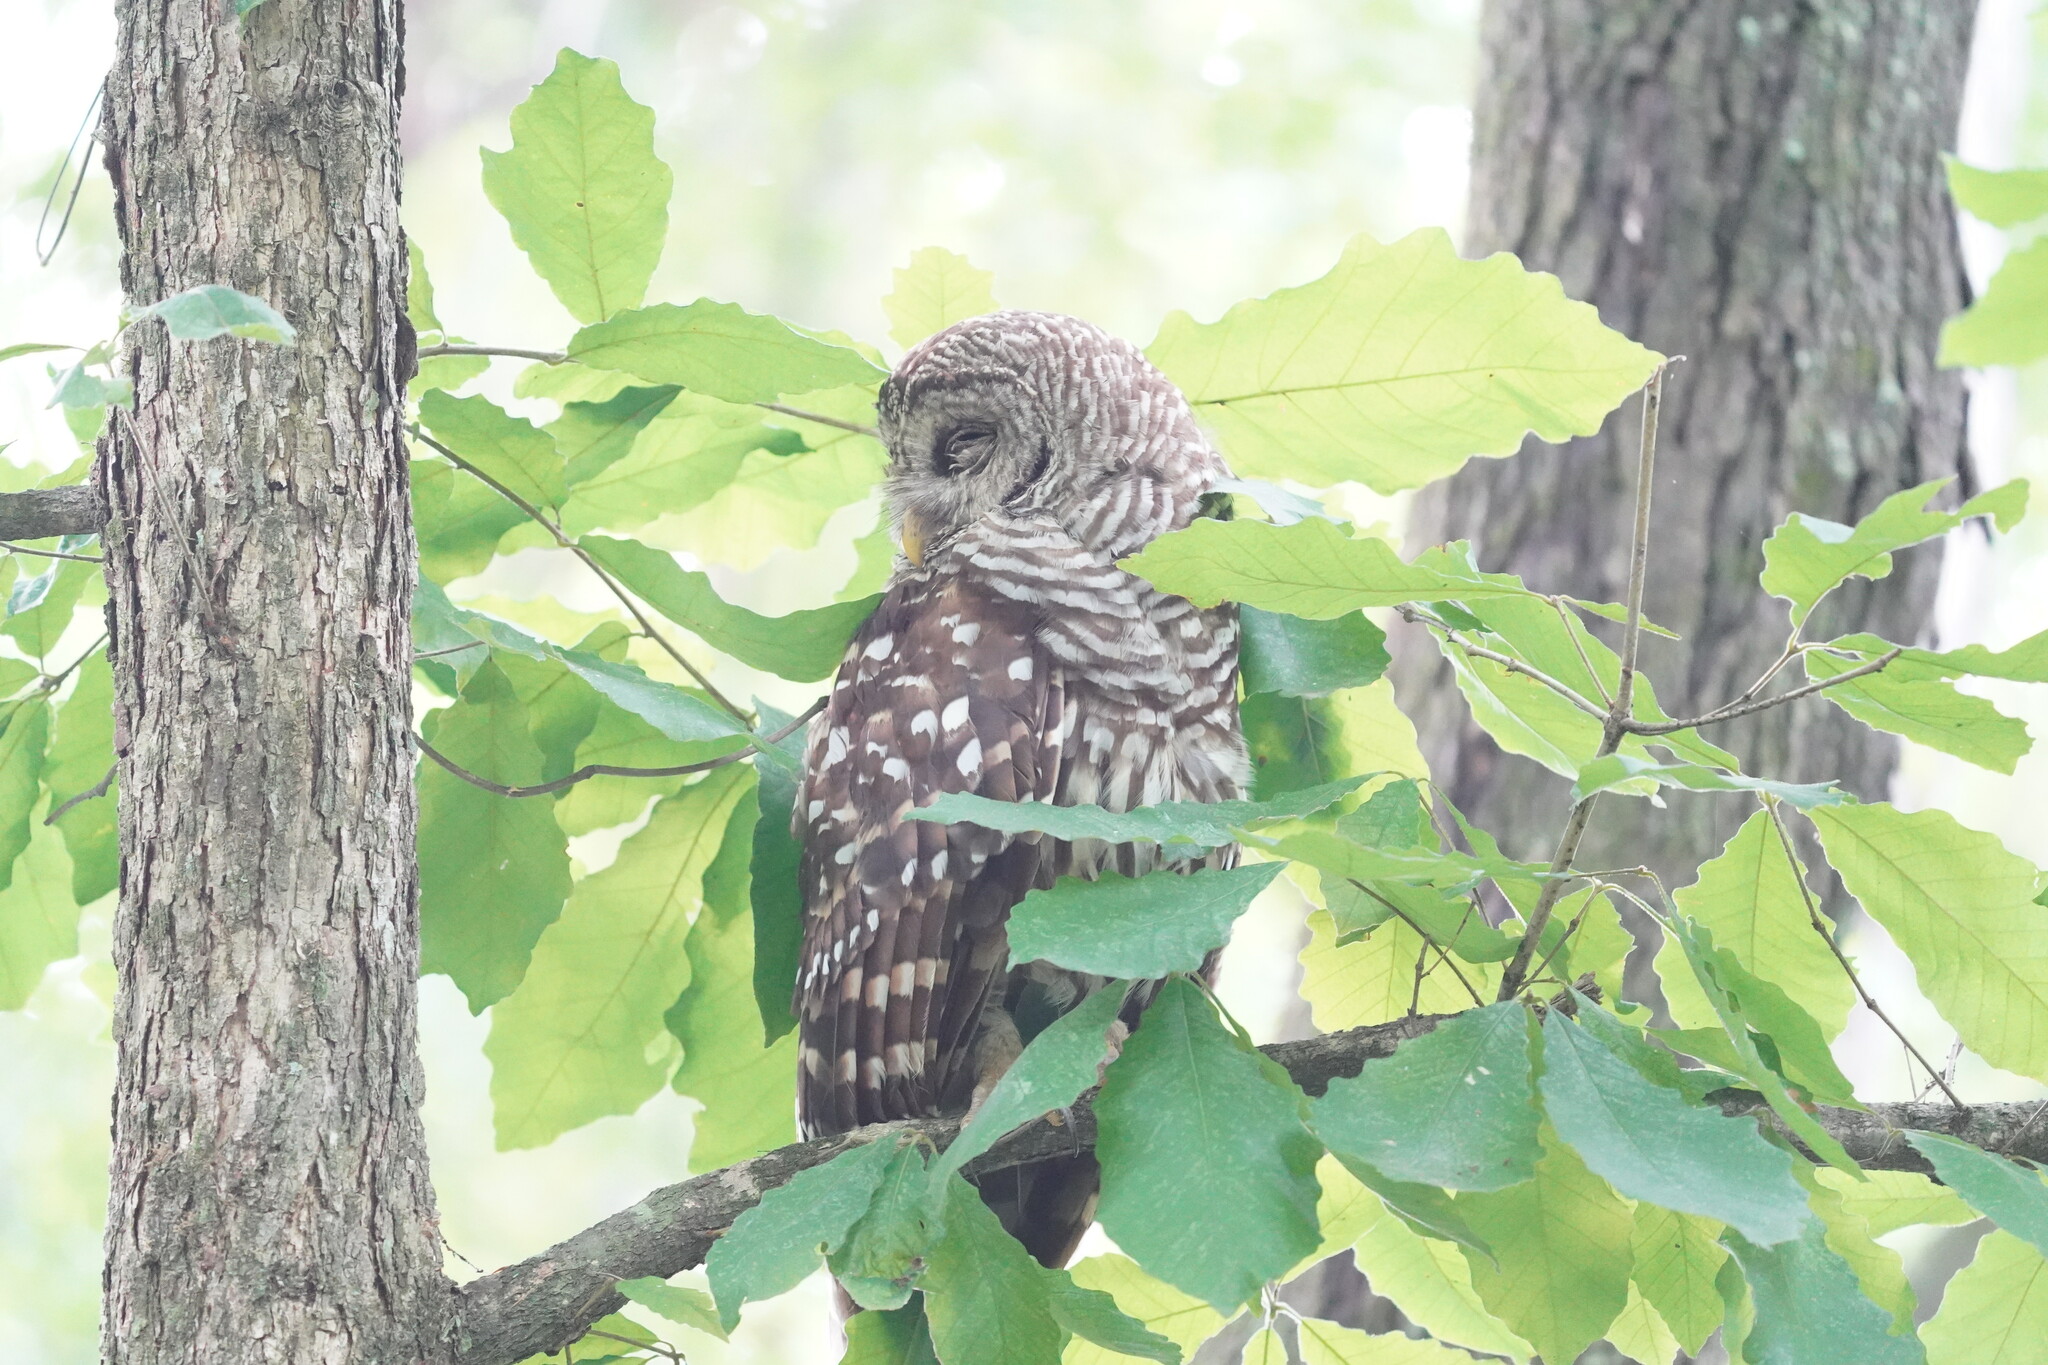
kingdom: Animalia
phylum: Chordata
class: Aves
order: Strigiformes
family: Strigidae
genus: Strix
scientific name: Strix varia
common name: Barred owl
